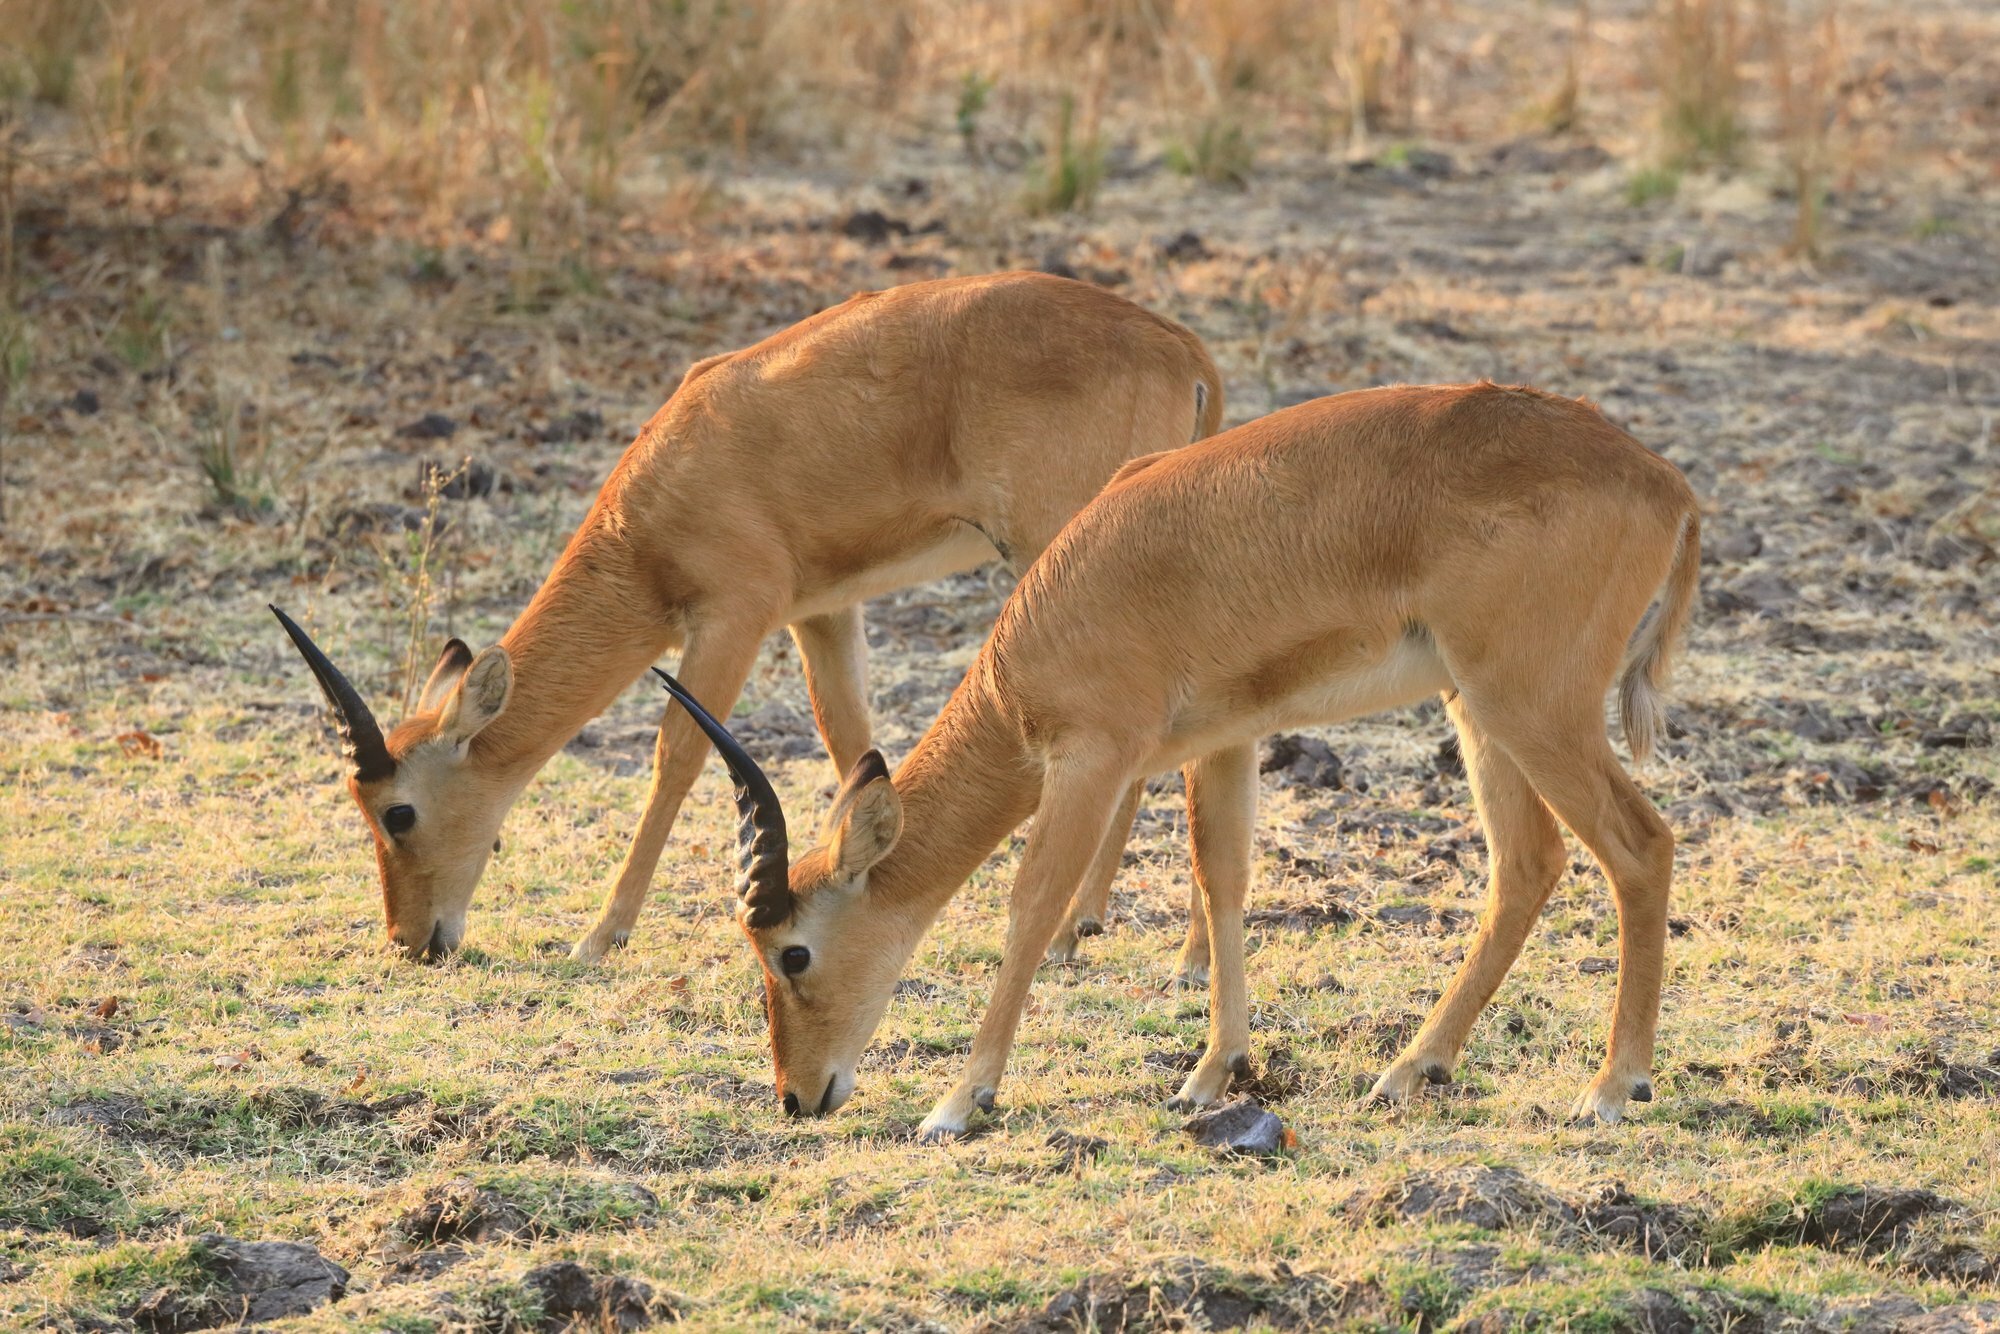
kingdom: Animalia
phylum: Chordata
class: Mammalia
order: Artiodactyla
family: Bovidae
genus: Kobus
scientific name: Kobus vardonii
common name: Puku
